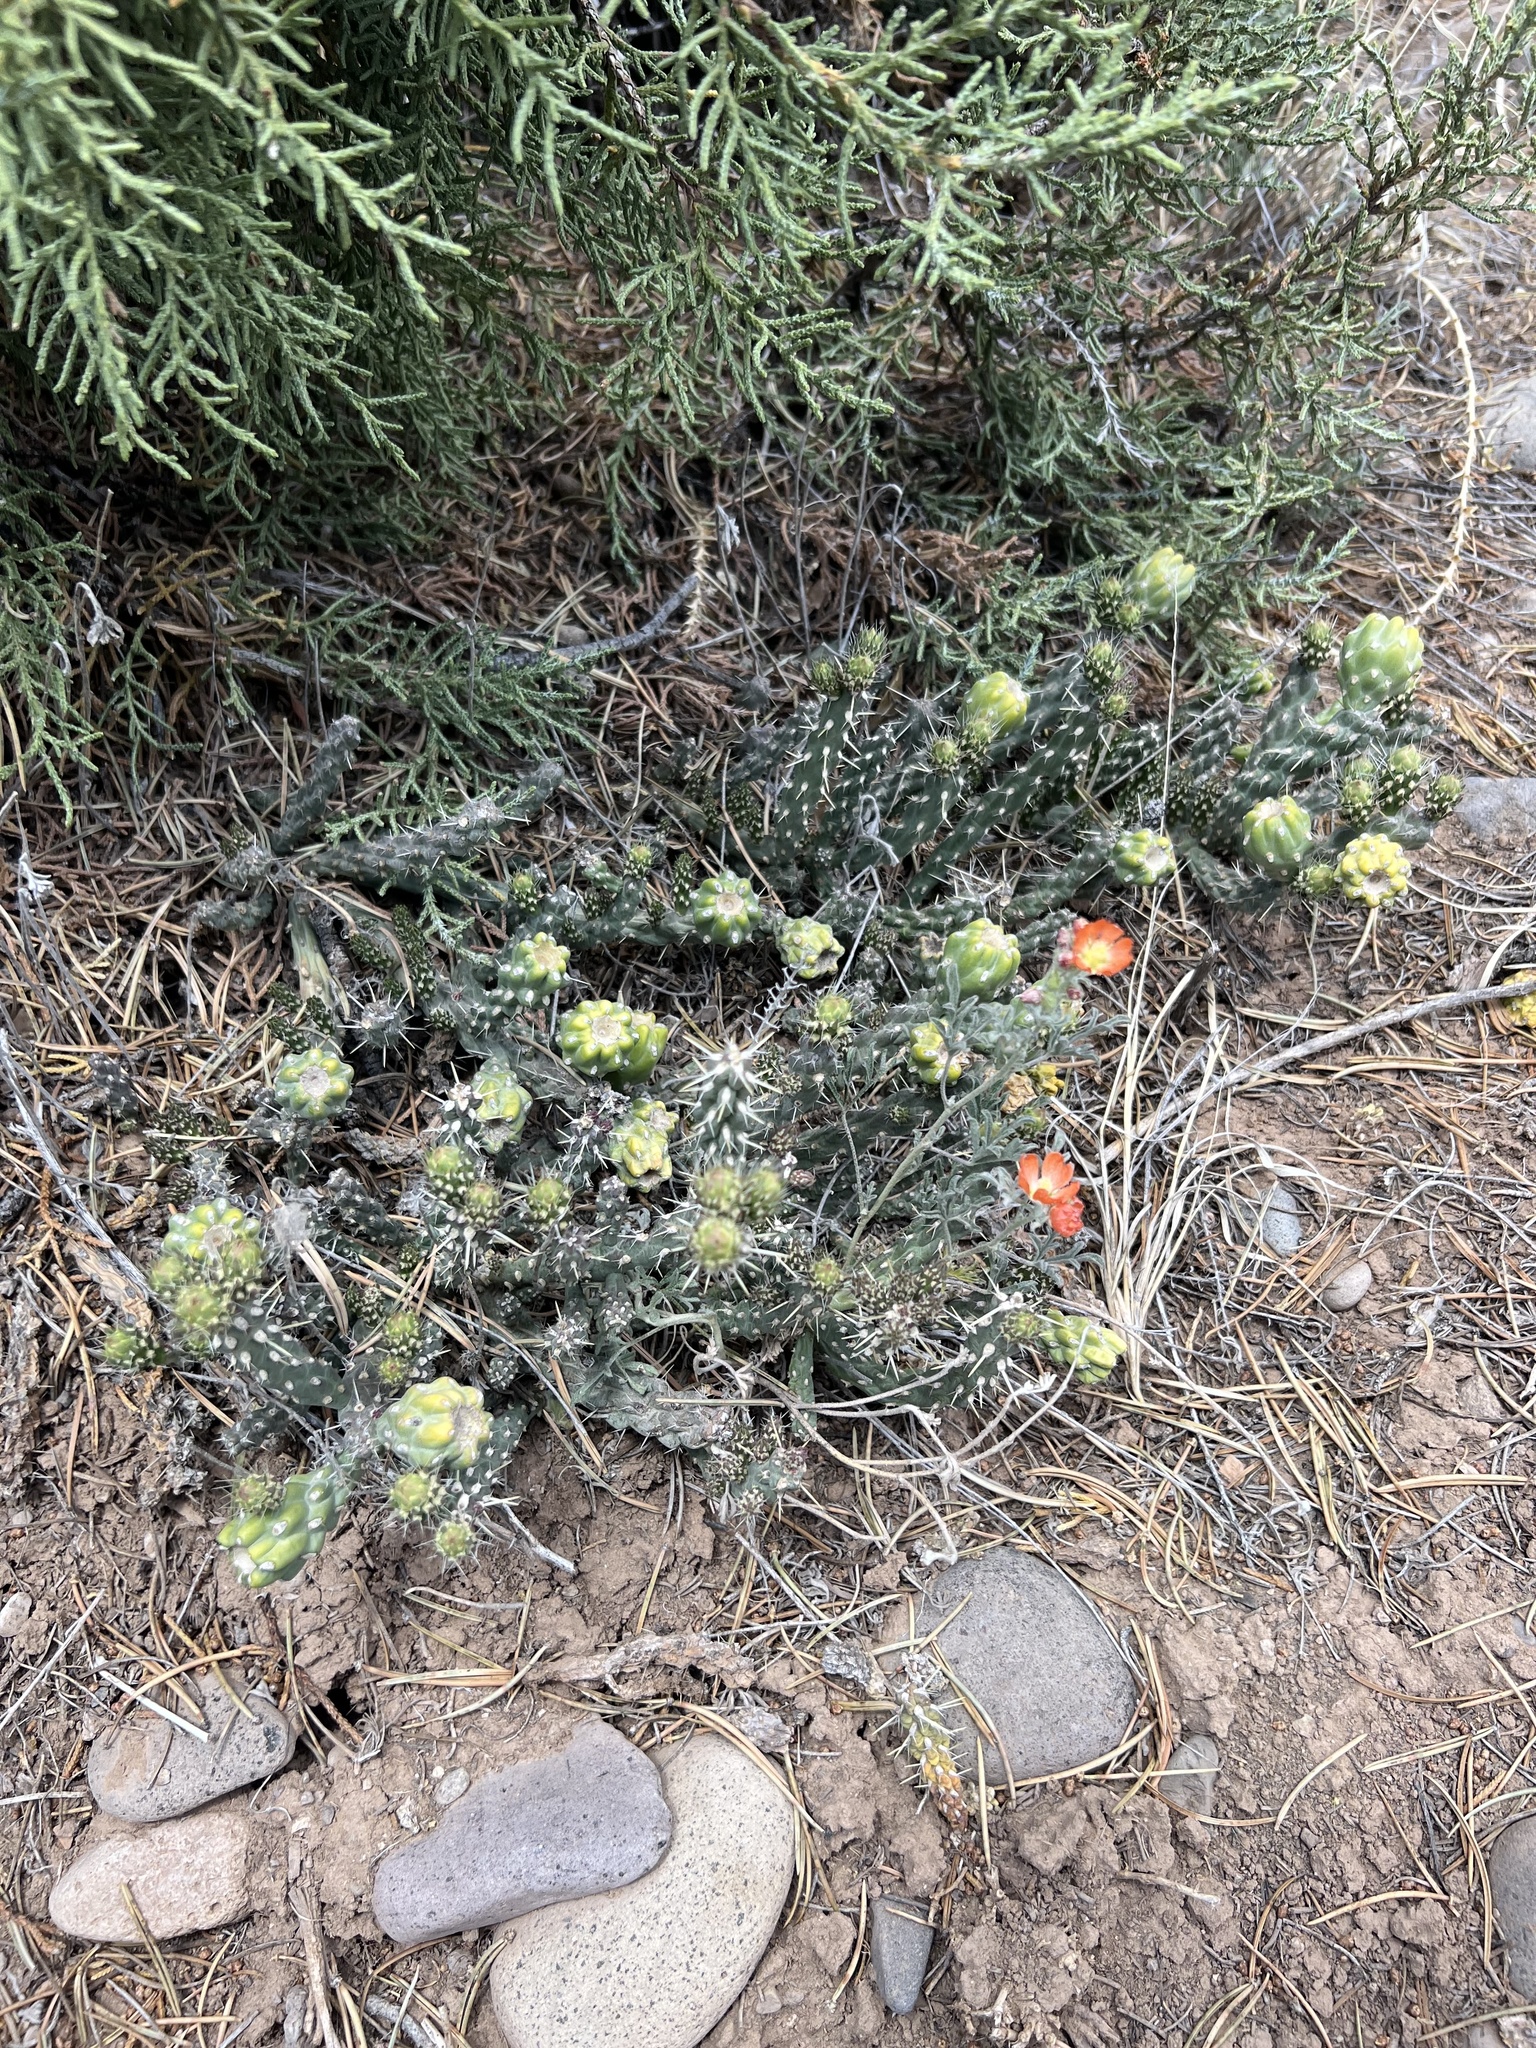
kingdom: Plantae
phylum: Tracheophyta
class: Magnoliopsida
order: Caryophyllales
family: Cactaceae
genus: Cylindropuntia
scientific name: Cylindropuntia whipplei
